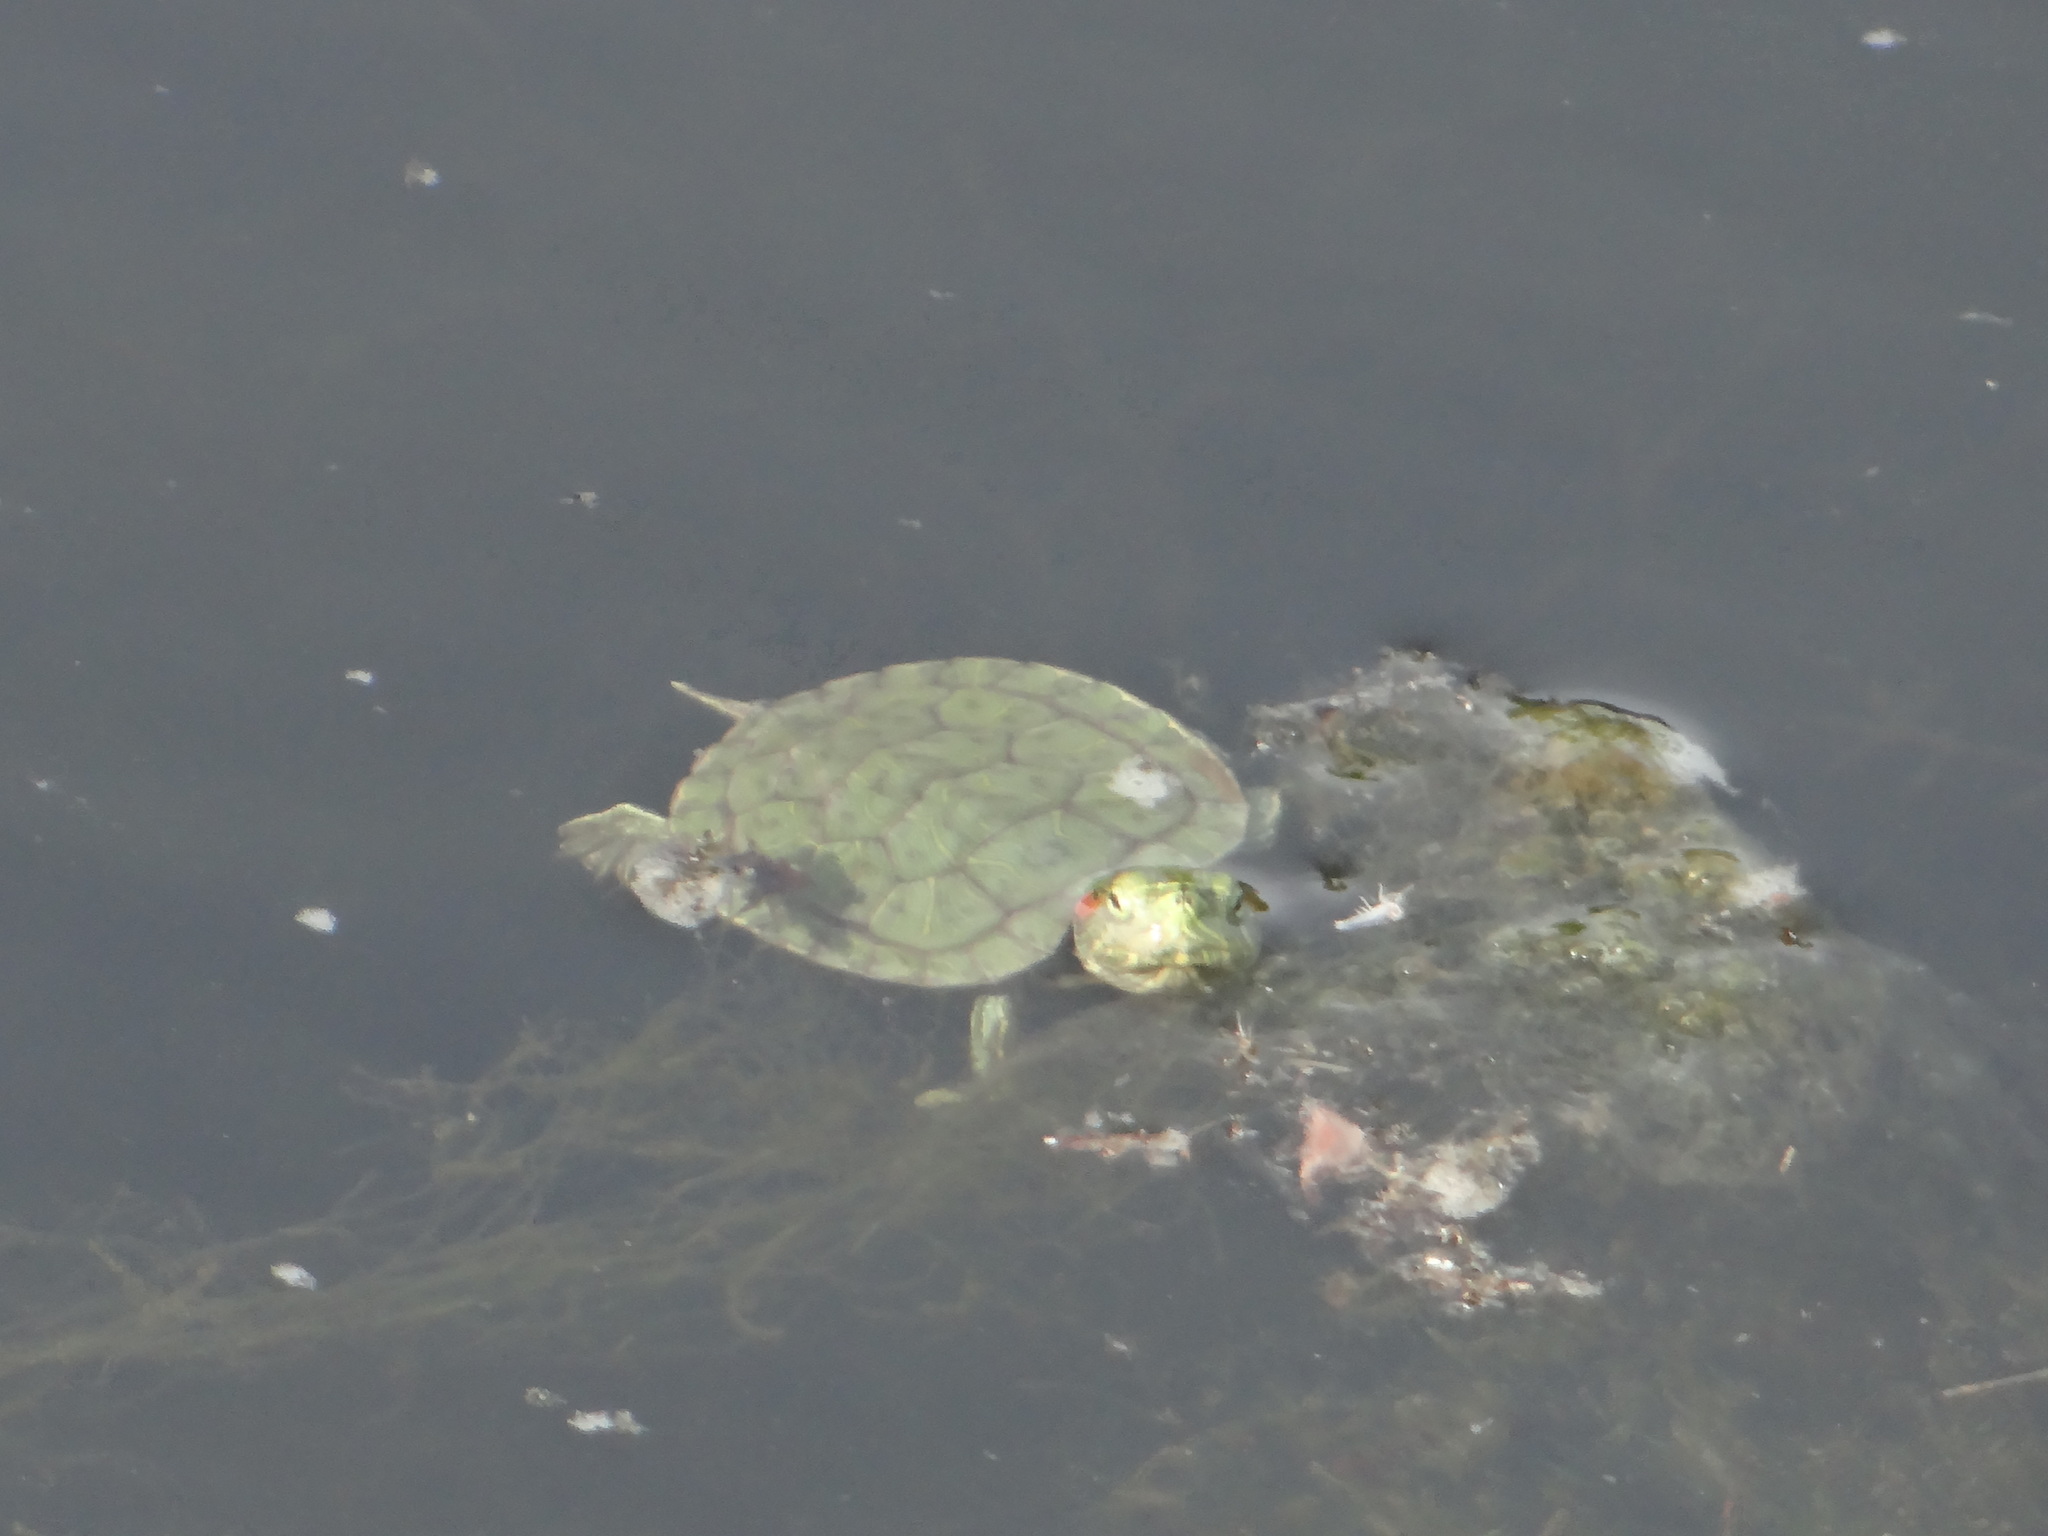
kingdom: Animalia
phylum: Chordata
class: Testudines
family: Emydidae
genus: Trachemys
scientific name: Trachemys scripta
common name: Slider
